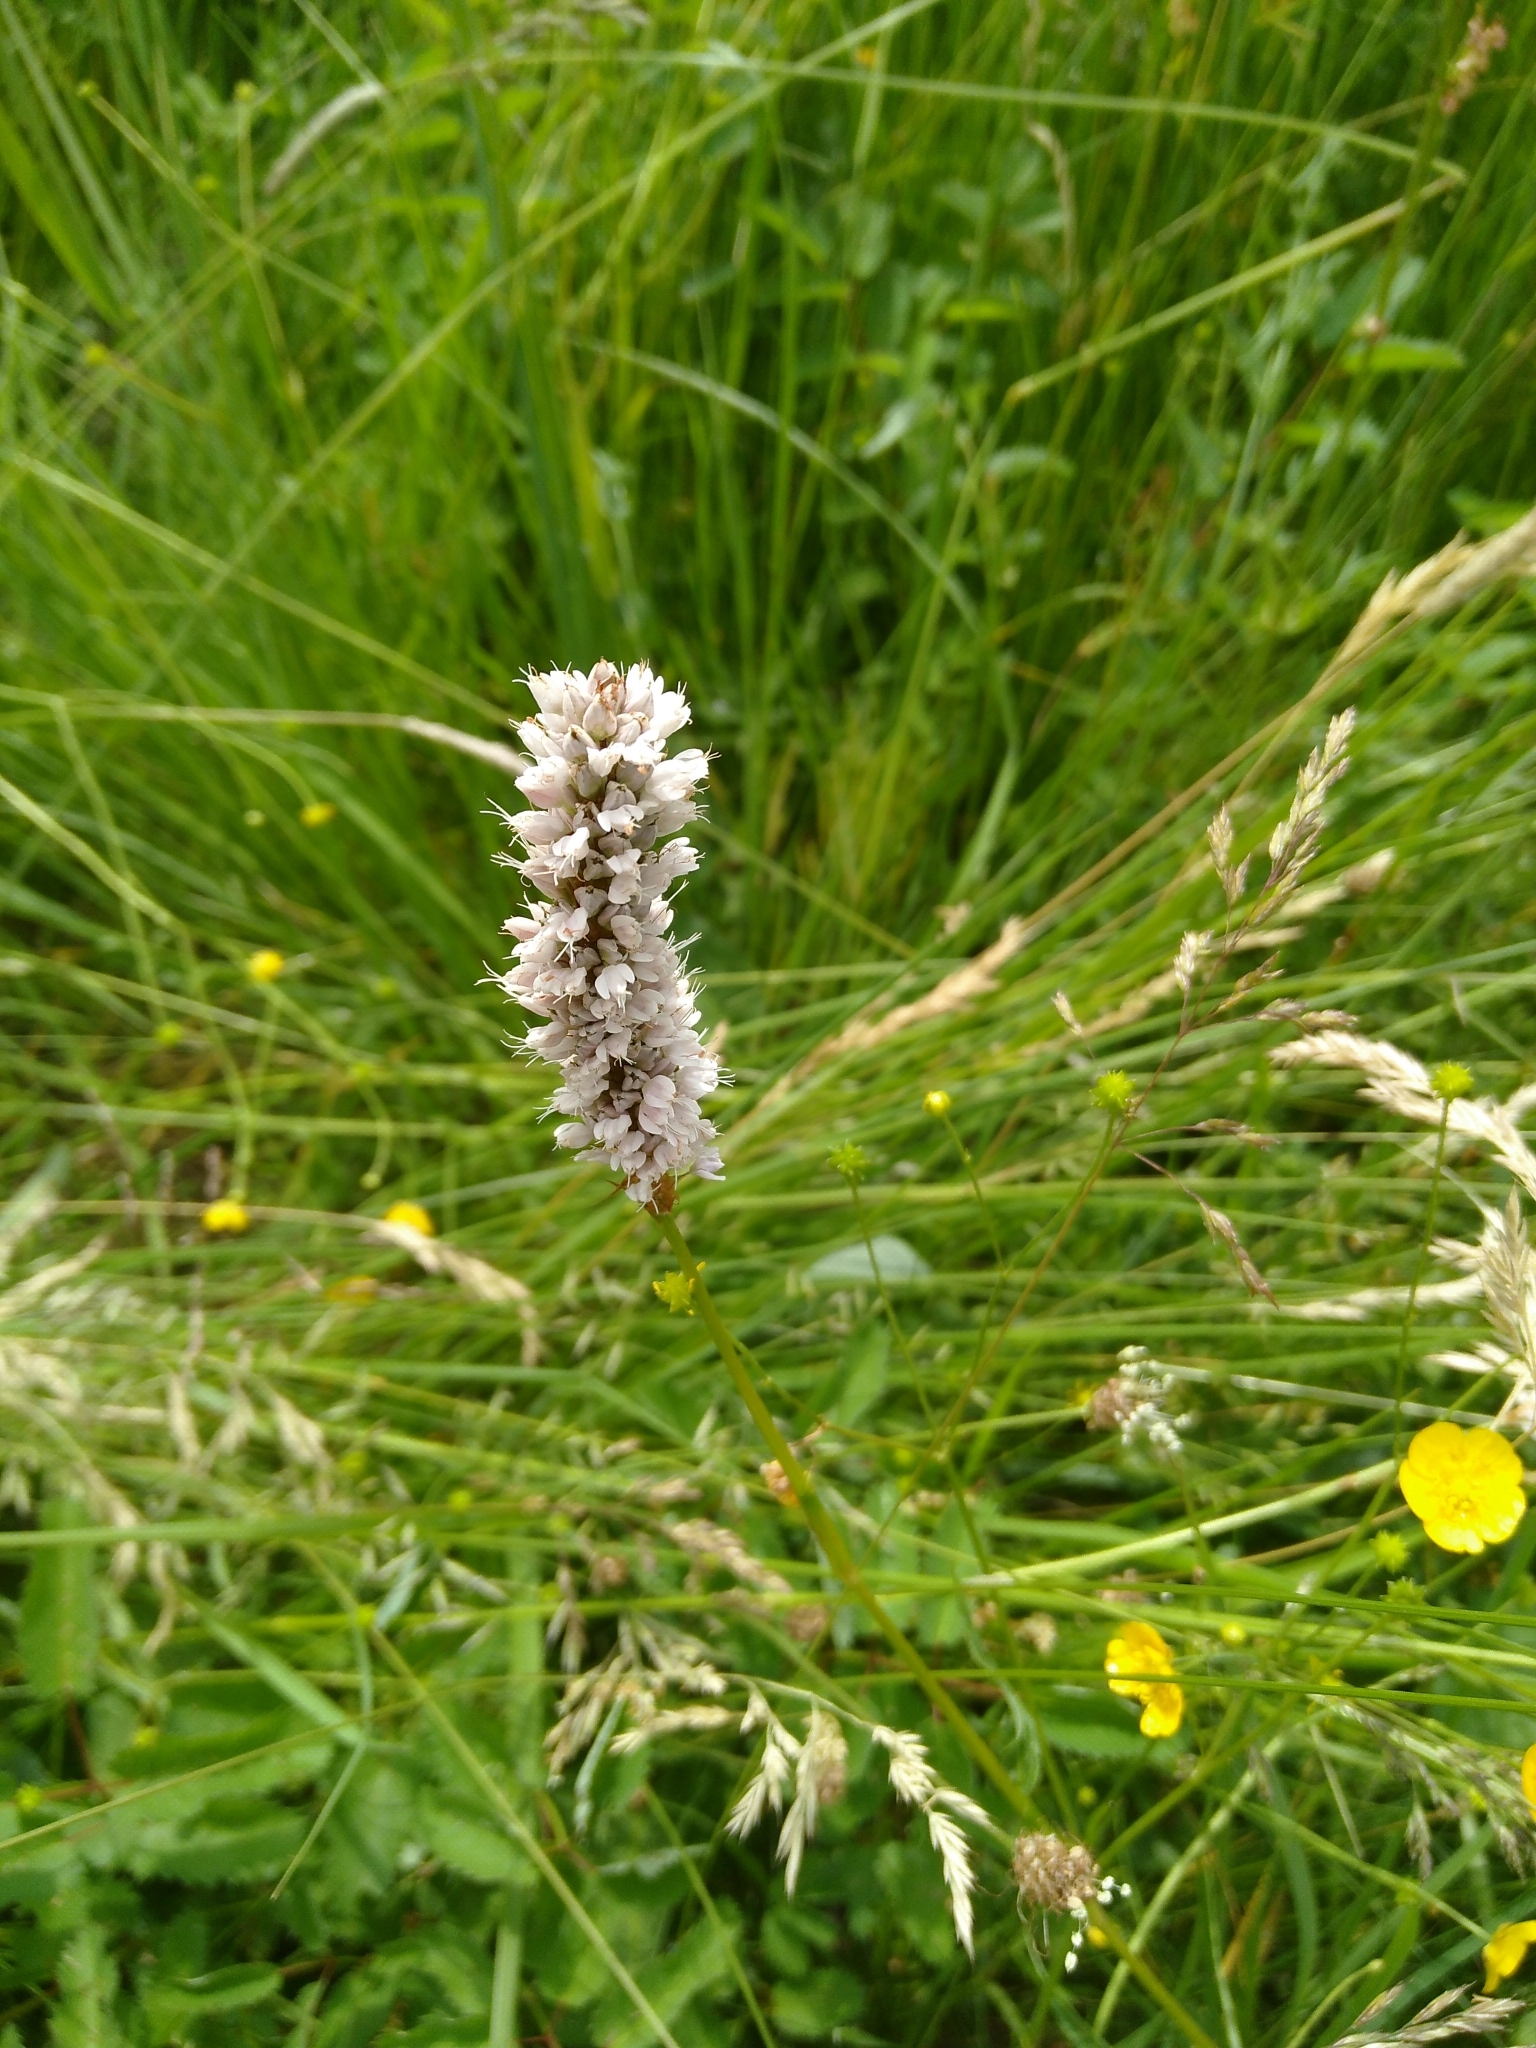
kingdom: Plantae
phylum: Tracheophyta
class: Magnoliopsida
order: Caryophyllales
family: Polygonaceae
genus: Bistorta
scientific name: Bistorta officinalis
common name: Common bistort
